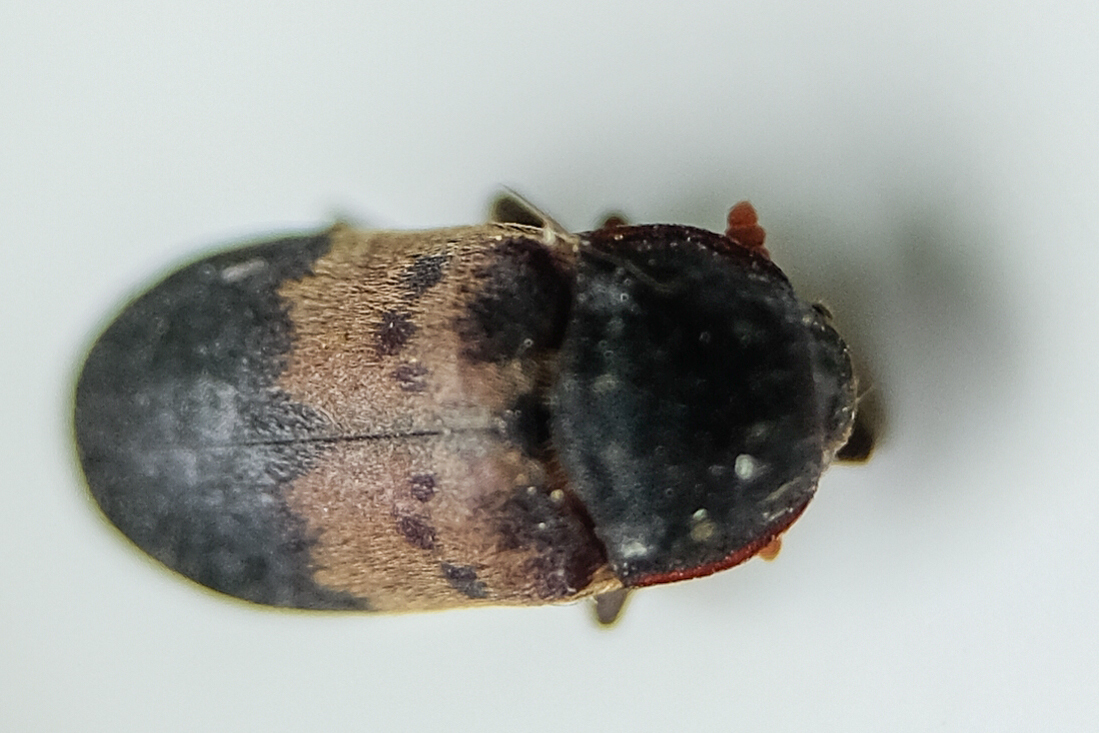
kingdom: Animalia
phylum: Arthropoda
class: Insecta
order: Coleoptera
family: Dermestidae
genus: Dermestes
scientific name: Dermestes lardarius
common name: Larder beetle
